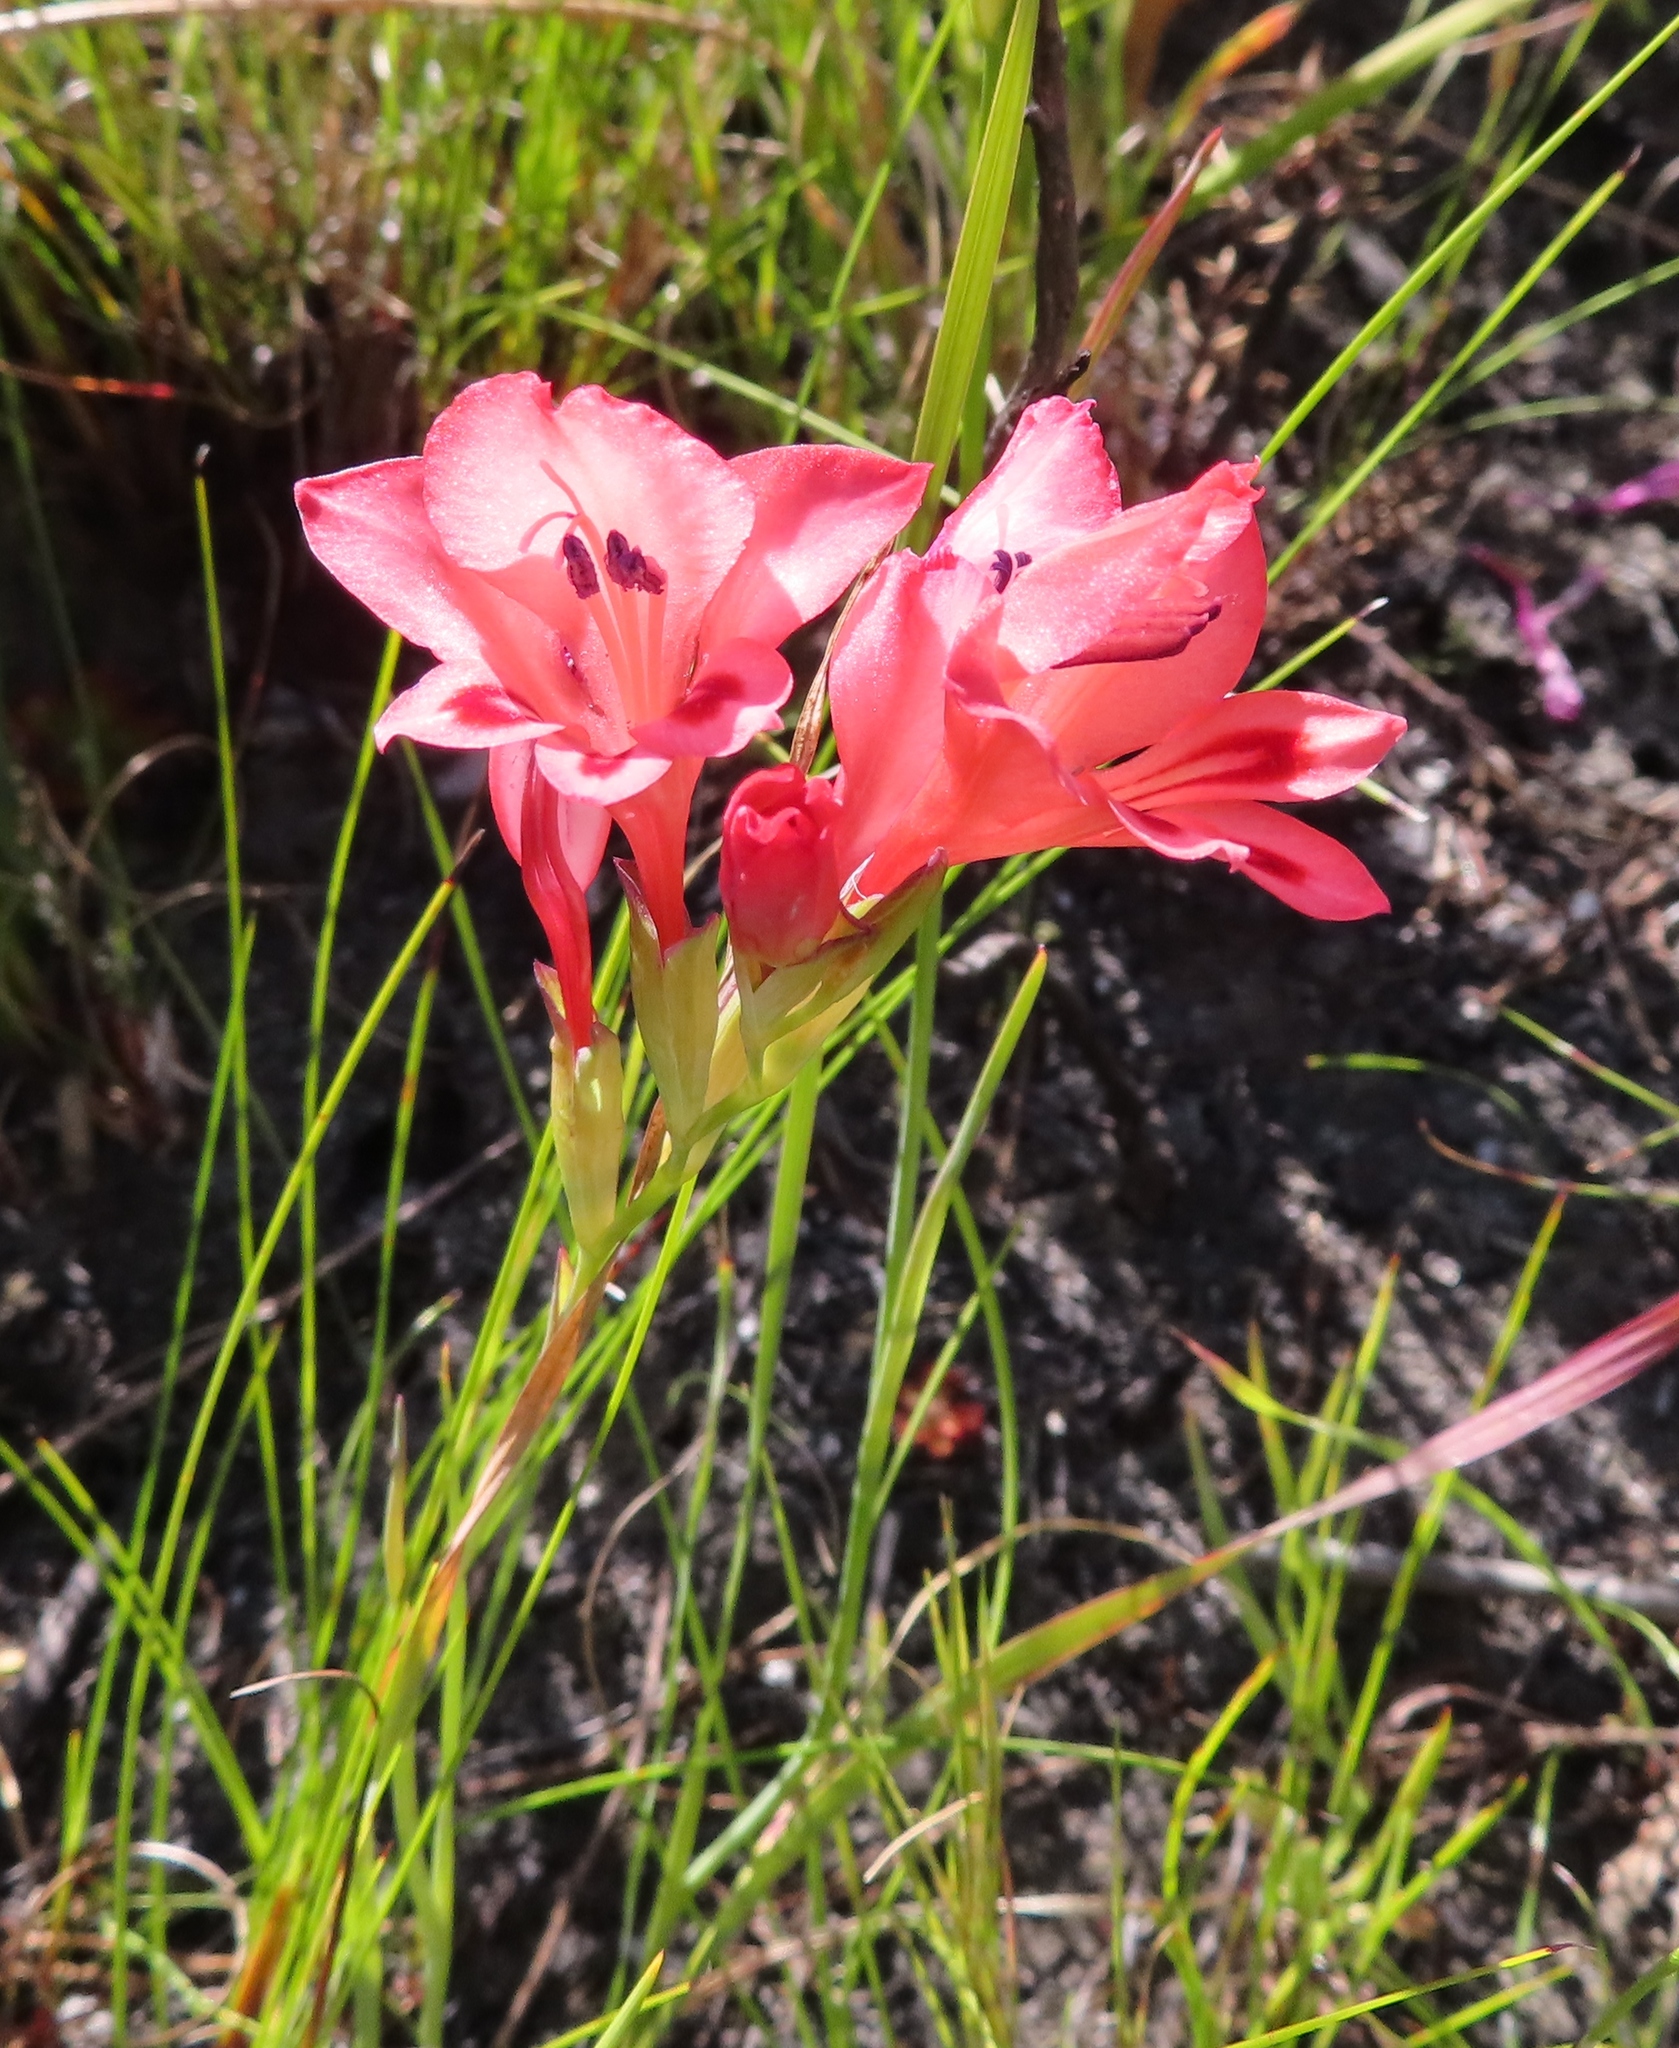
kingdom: Plantae
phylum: Tracheophyta
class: Liliopsida
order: Asparagales
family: Iridaceae
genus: Gladiolus
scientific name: Gladiolus oreocharis
